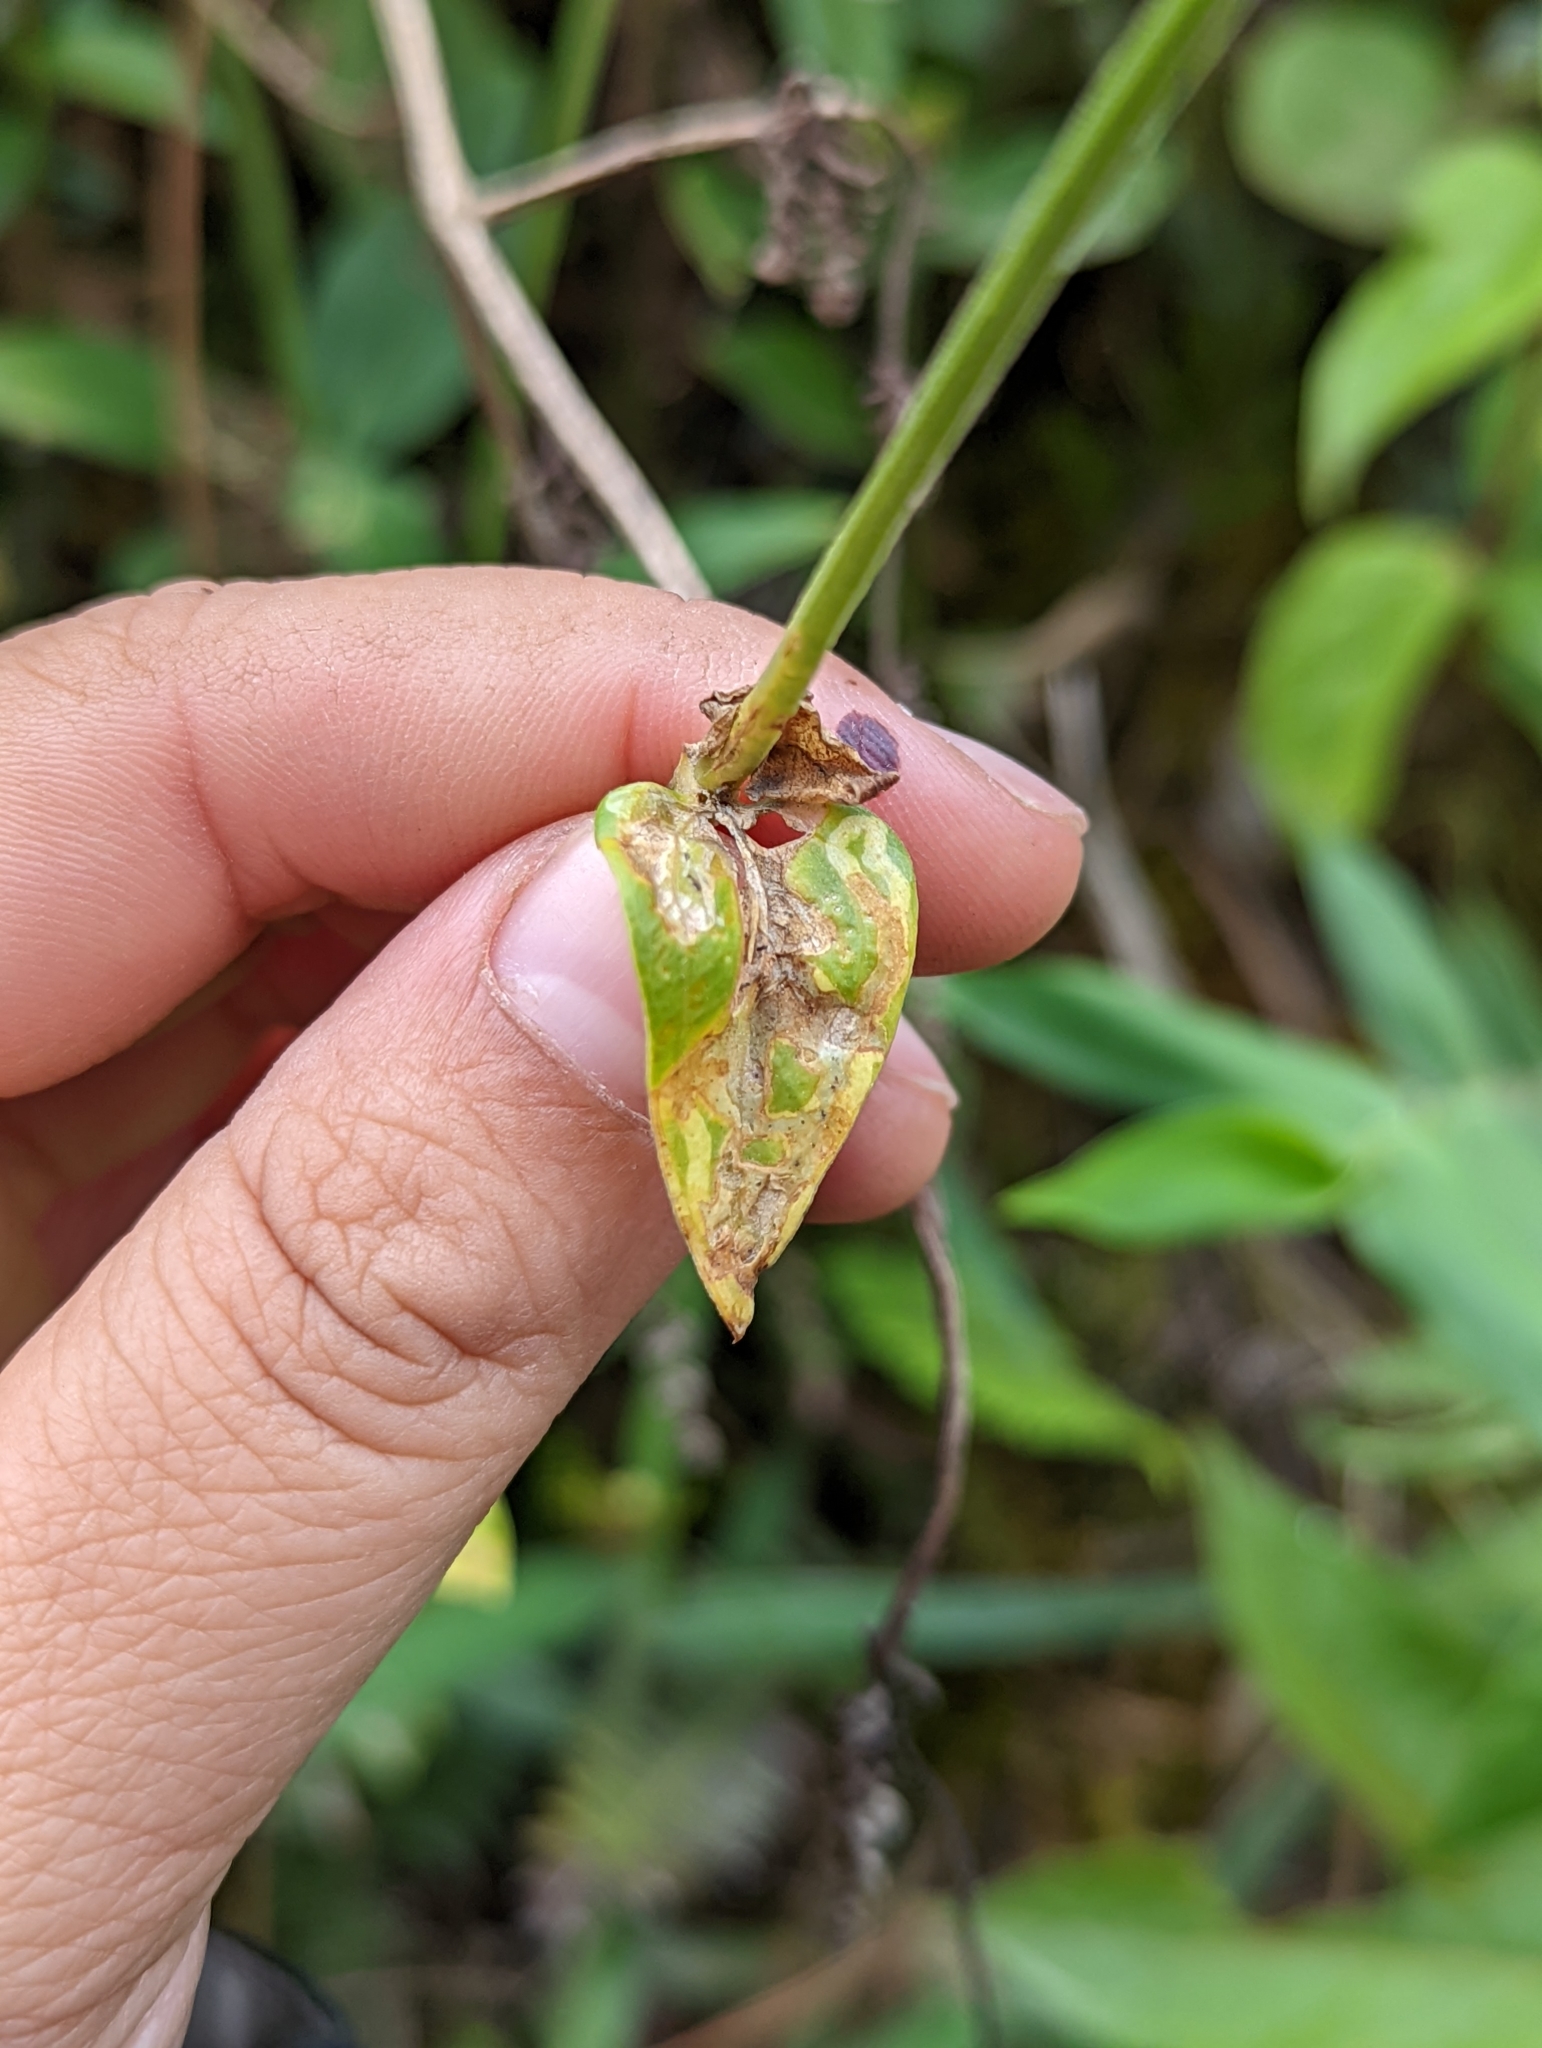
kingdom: Plantae
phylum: Tracheophyta
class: Magnoliopsida
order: Gentianales
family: Gentianaceae
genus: Chelonanthus
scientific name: Chelonanthus purpurascens
